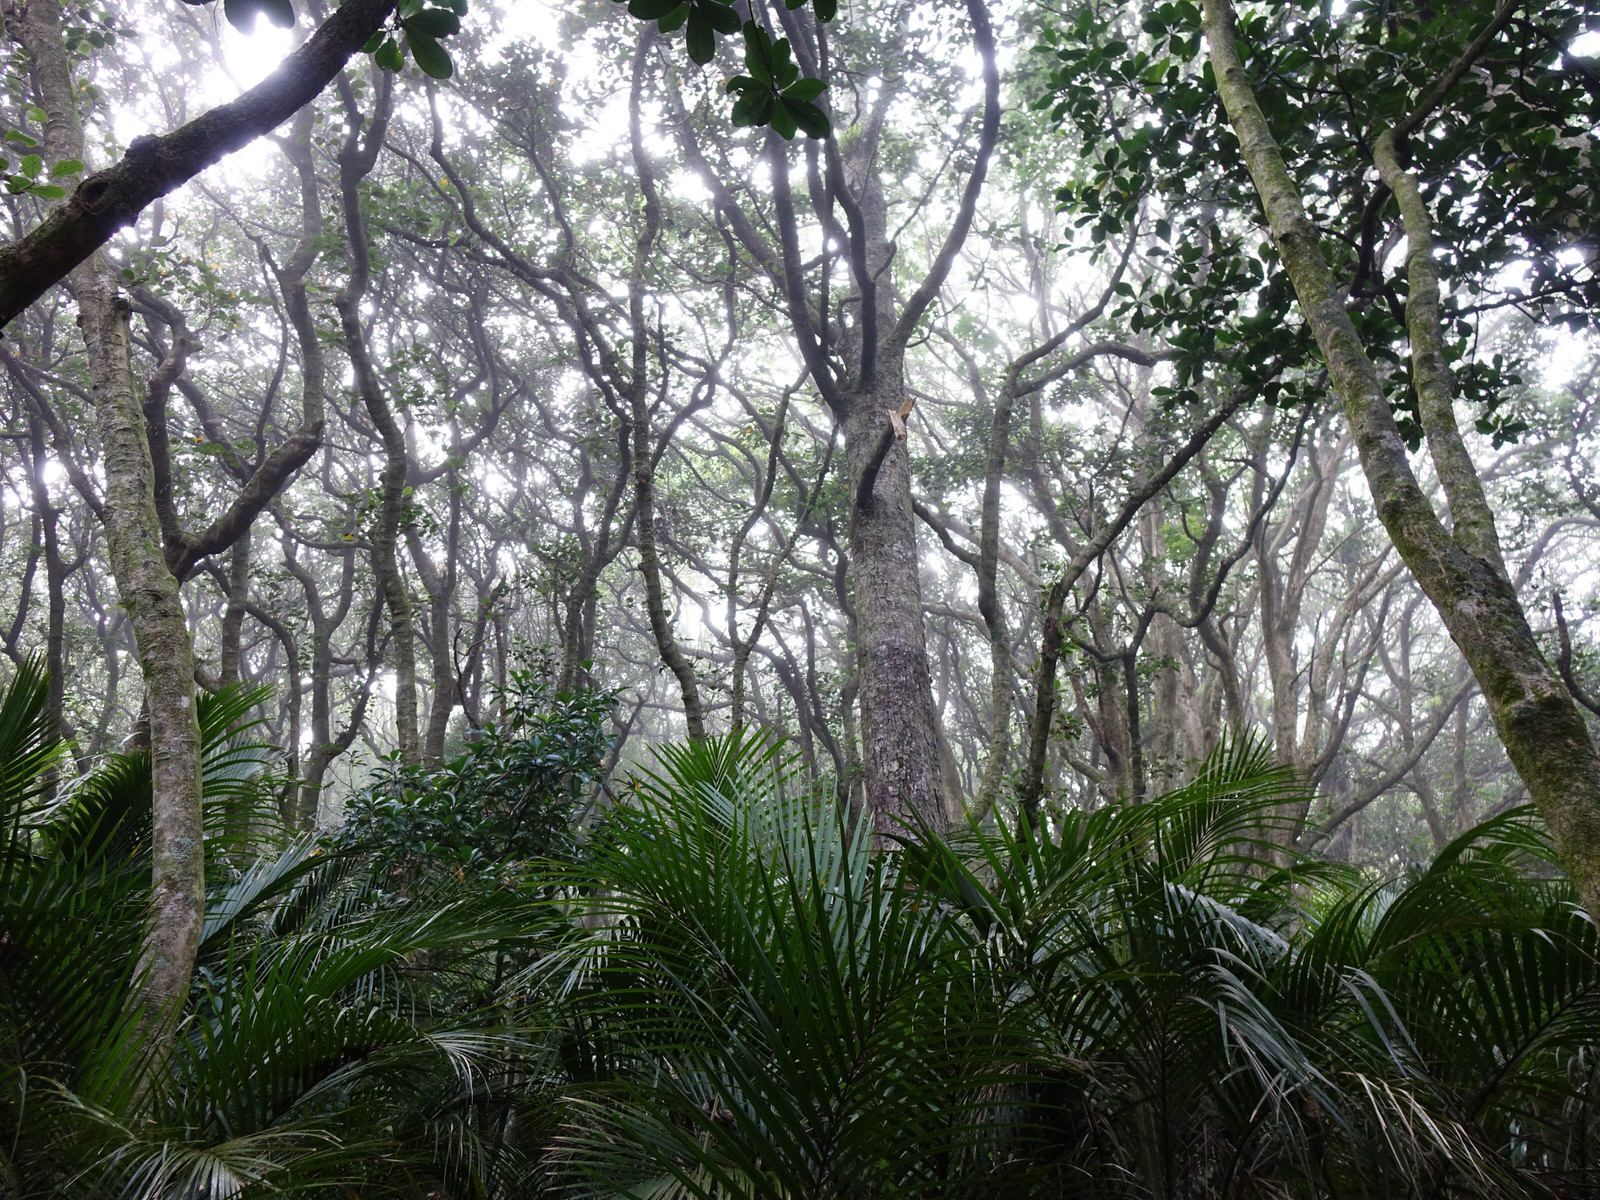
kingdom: Plantae
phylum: Tracheophyta
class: Magnoliopsida
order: Laurales
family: Lauraceae
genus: Beilschmiedia
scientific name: Beilschmiedia tarairi
